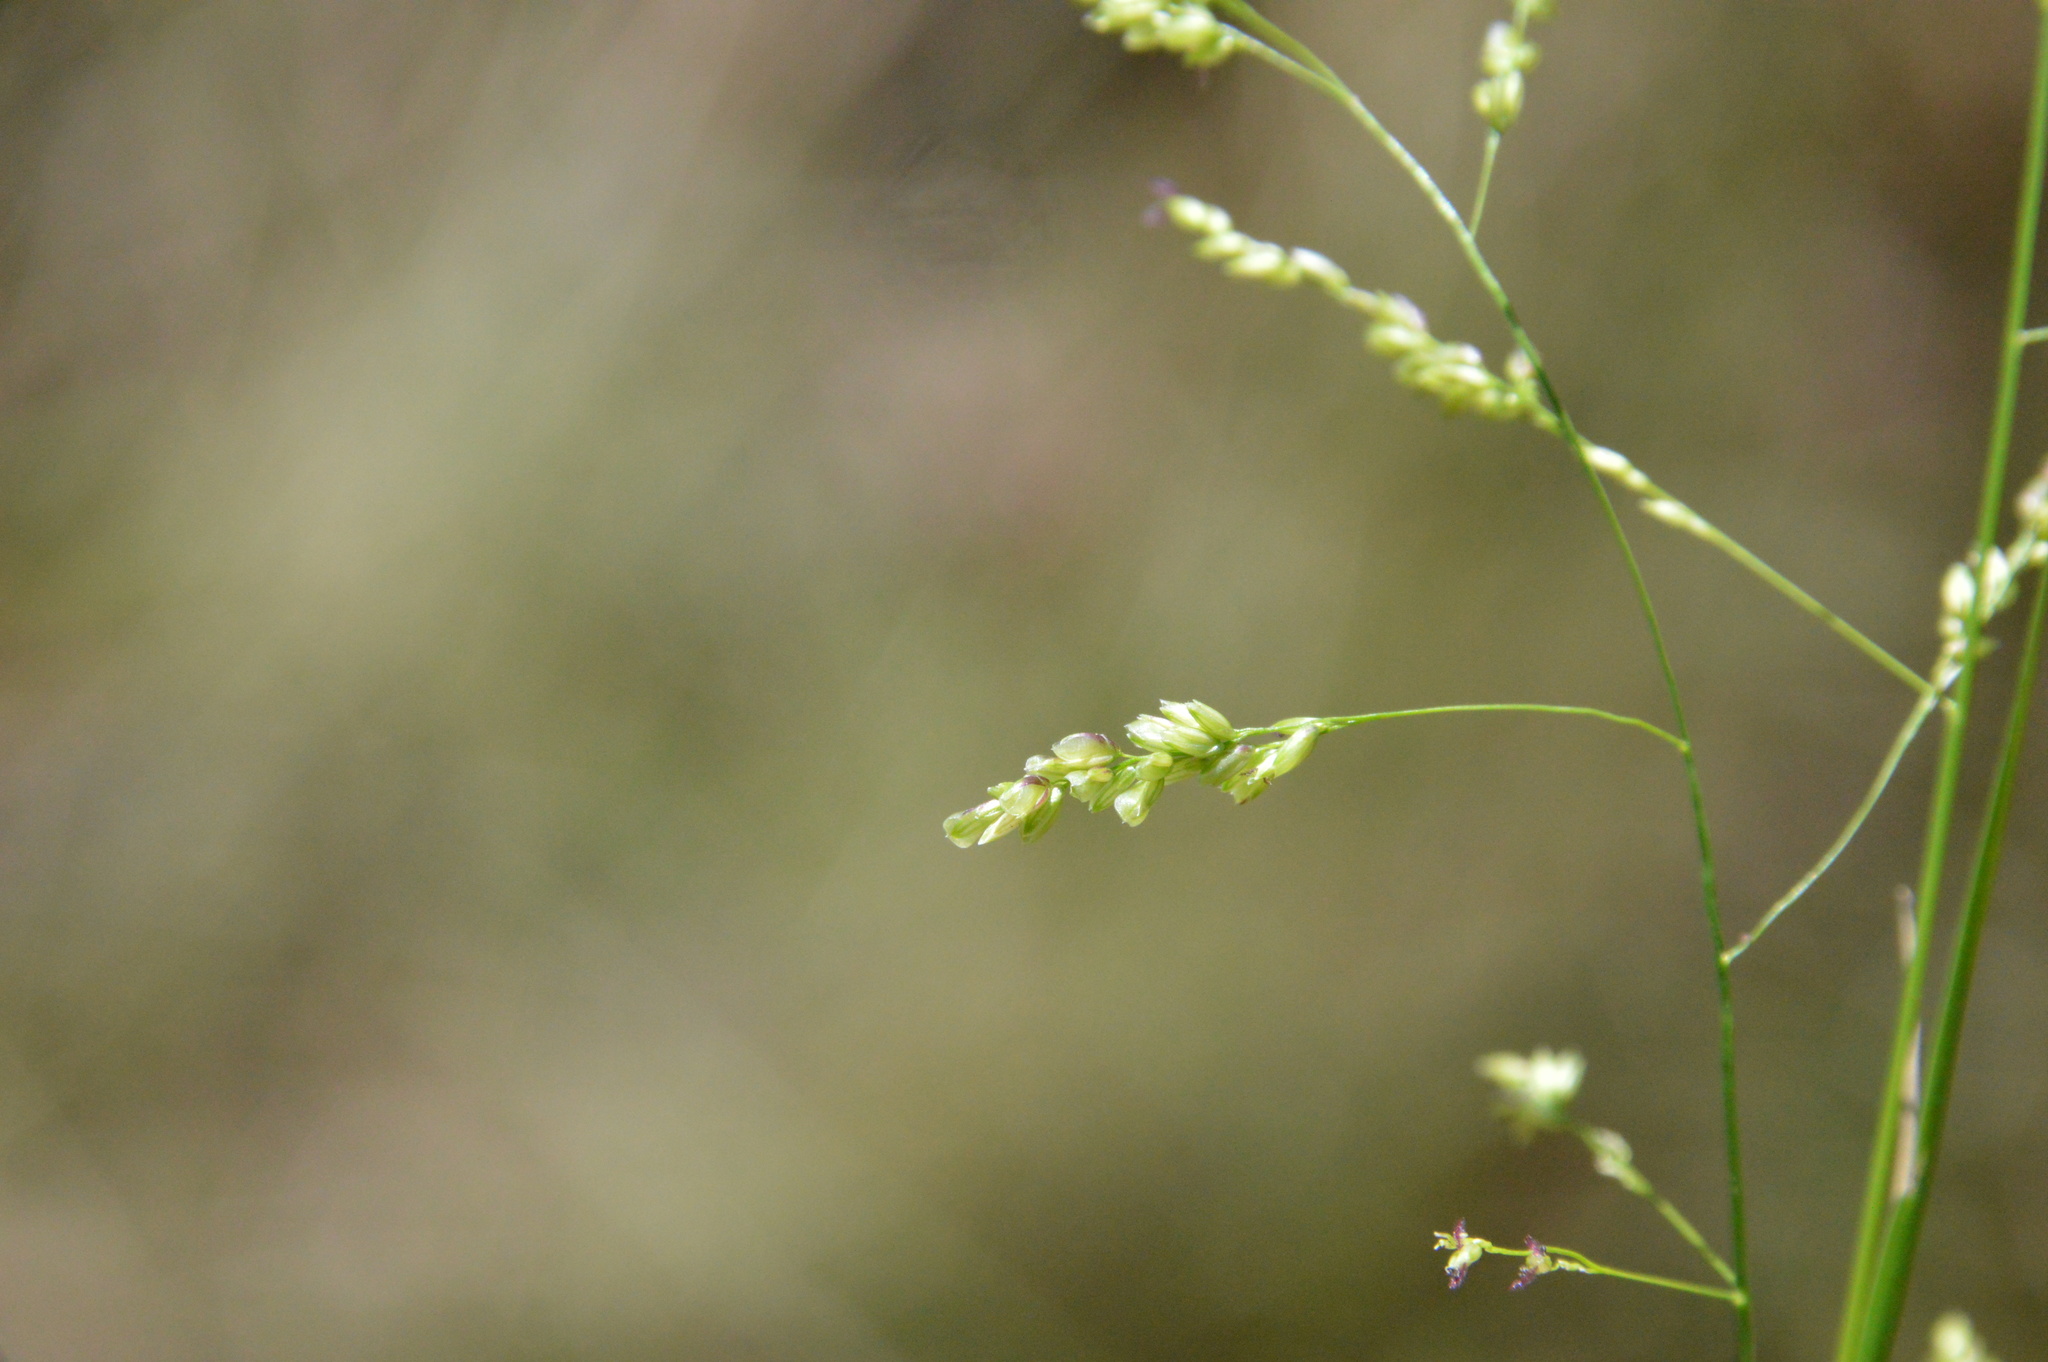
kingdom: Plantae
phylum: Tracheophyta
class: Liliopsida
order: Poales
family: Poaceae
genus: Steinchisma
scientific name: Steinchisma hians
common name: Gaping panic grass
